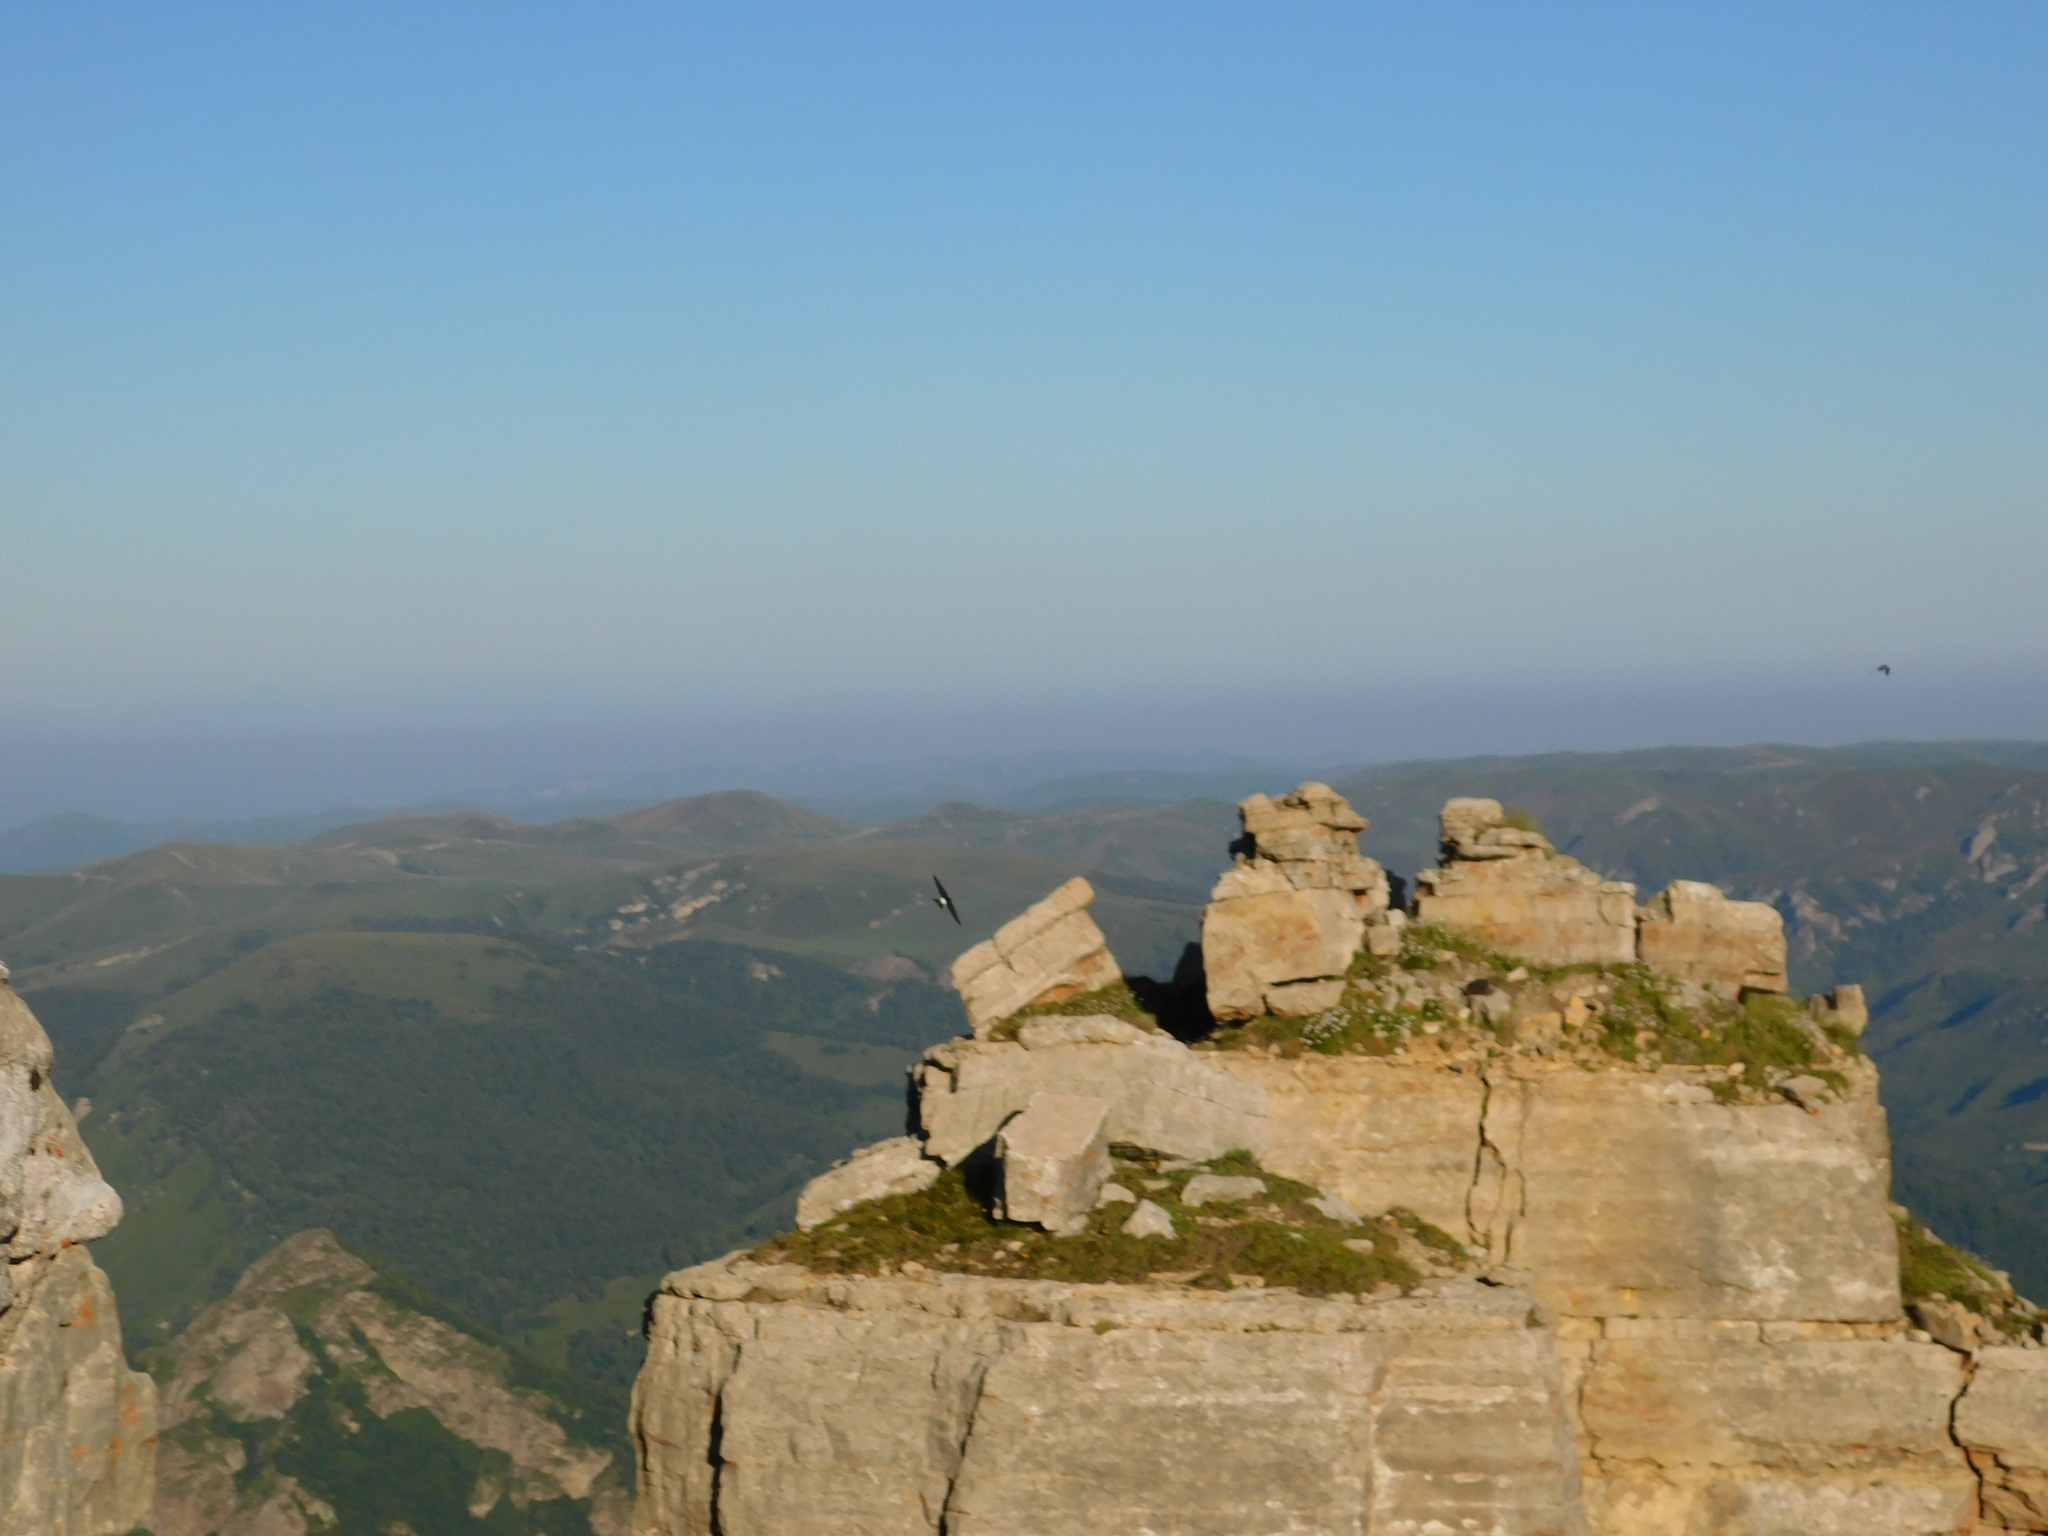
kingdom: Animalia
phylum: Chordata
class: Aves
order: Passeriformes
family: Hirundinidae
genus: Delichon
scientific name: Delichon urbicum
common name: Common house martin
